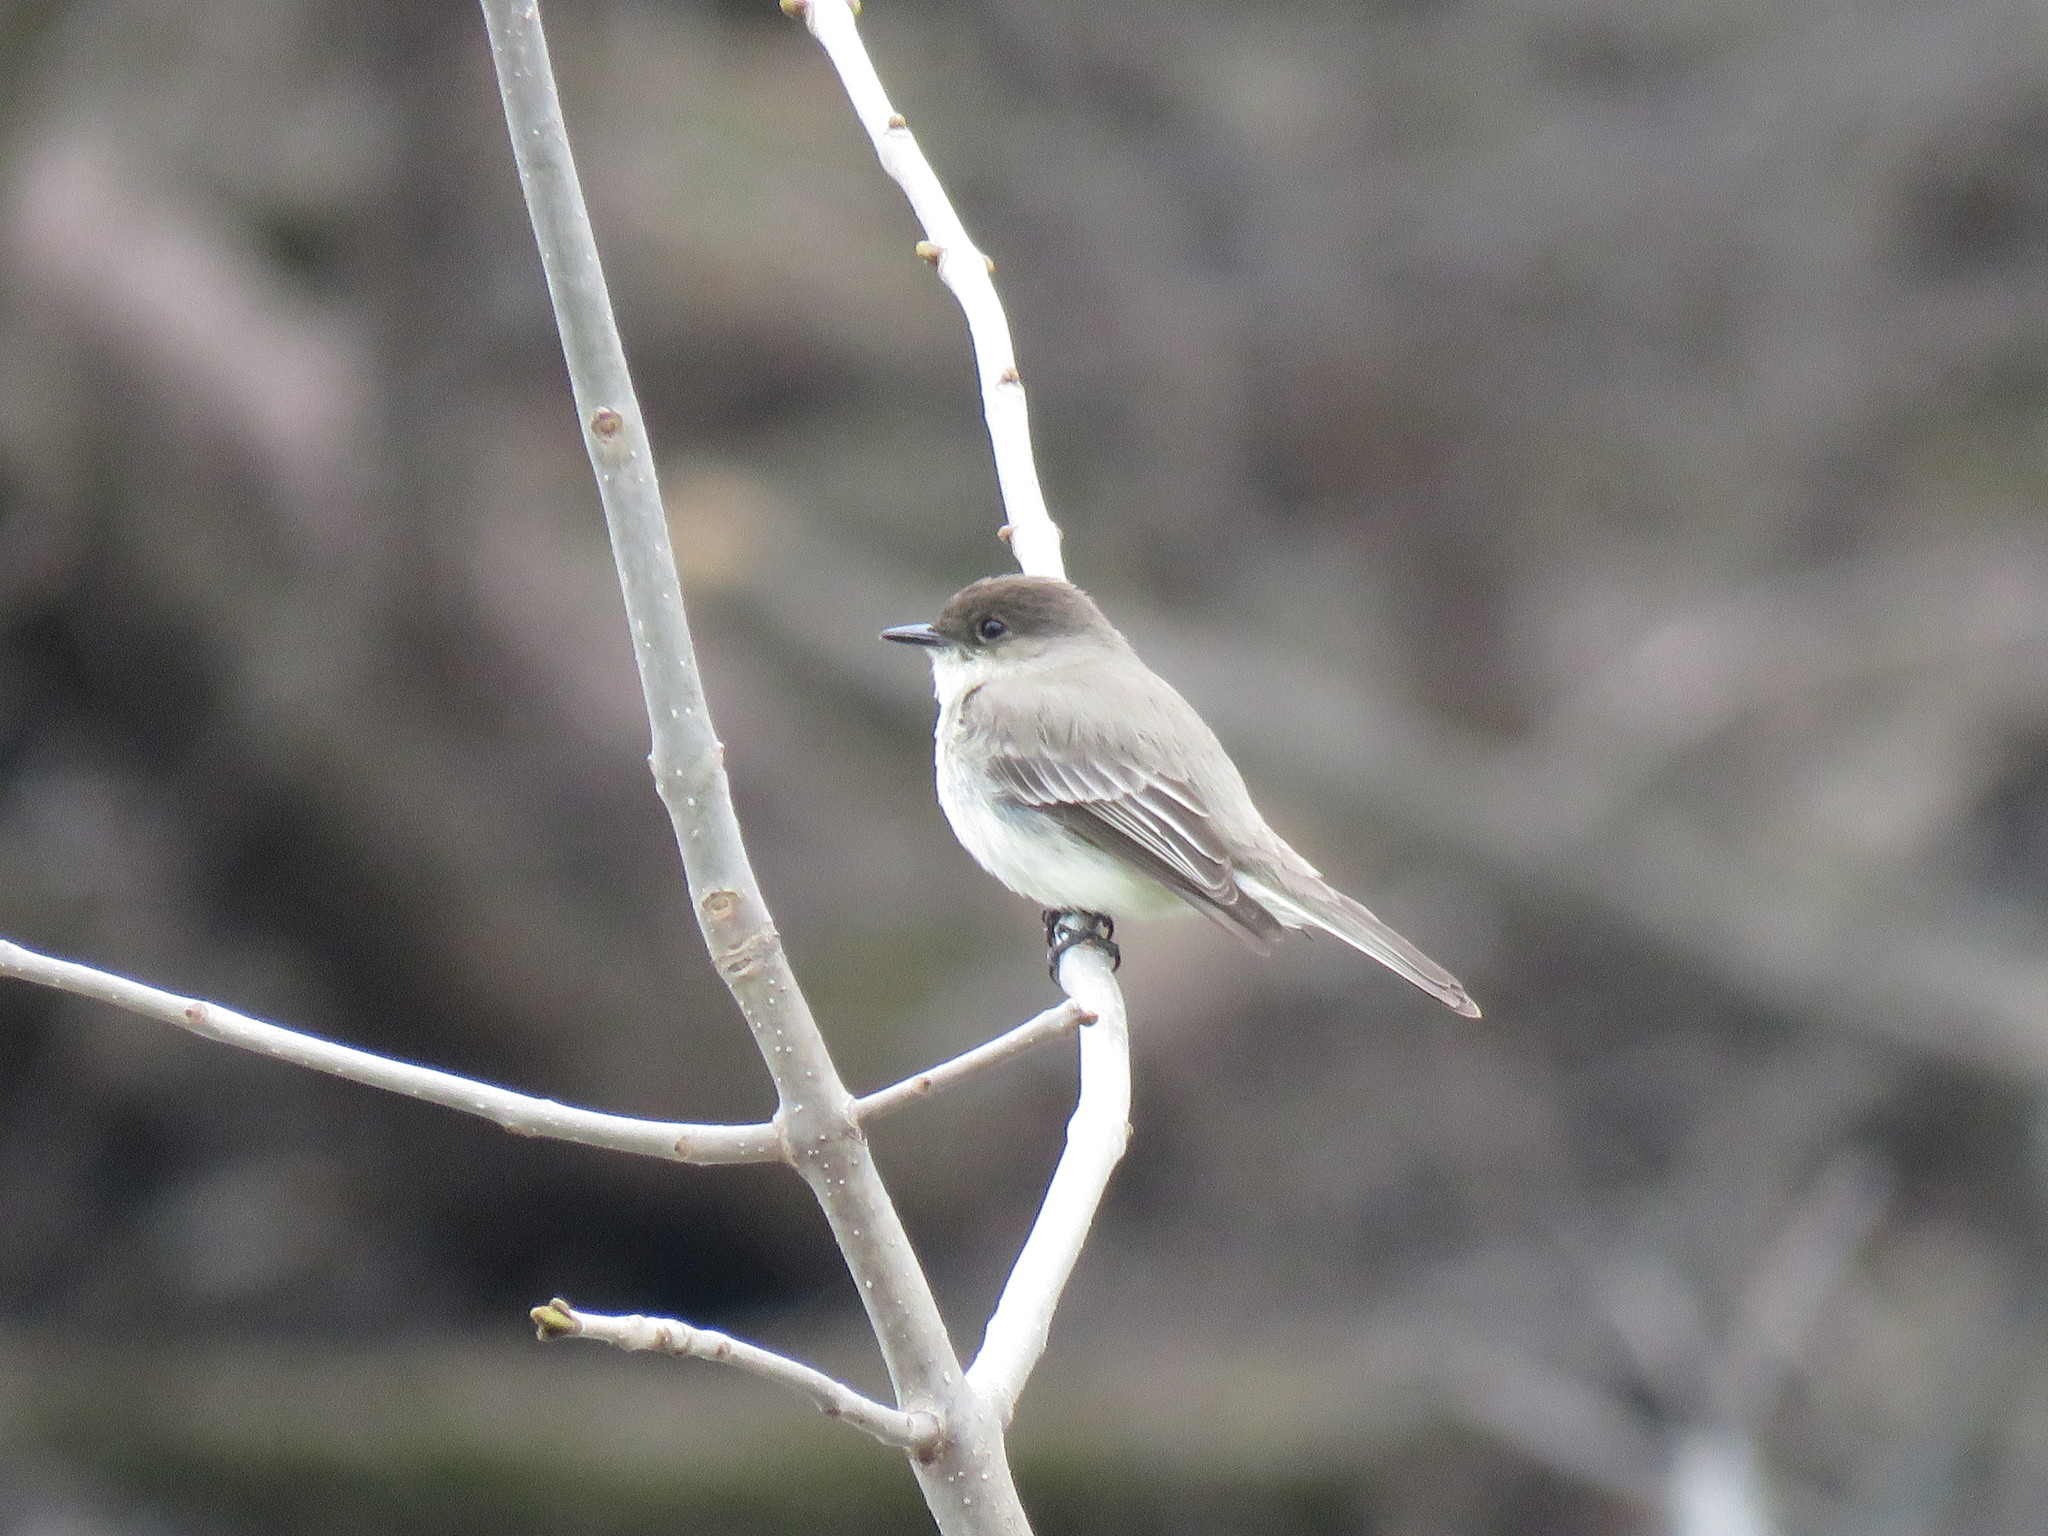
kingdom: Animalia
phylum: Chordata
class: Aves
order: Passeriformes
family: Tyrannidae
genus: Sayornis
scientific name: Sayornis phoebe
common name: Eastern phoebe
